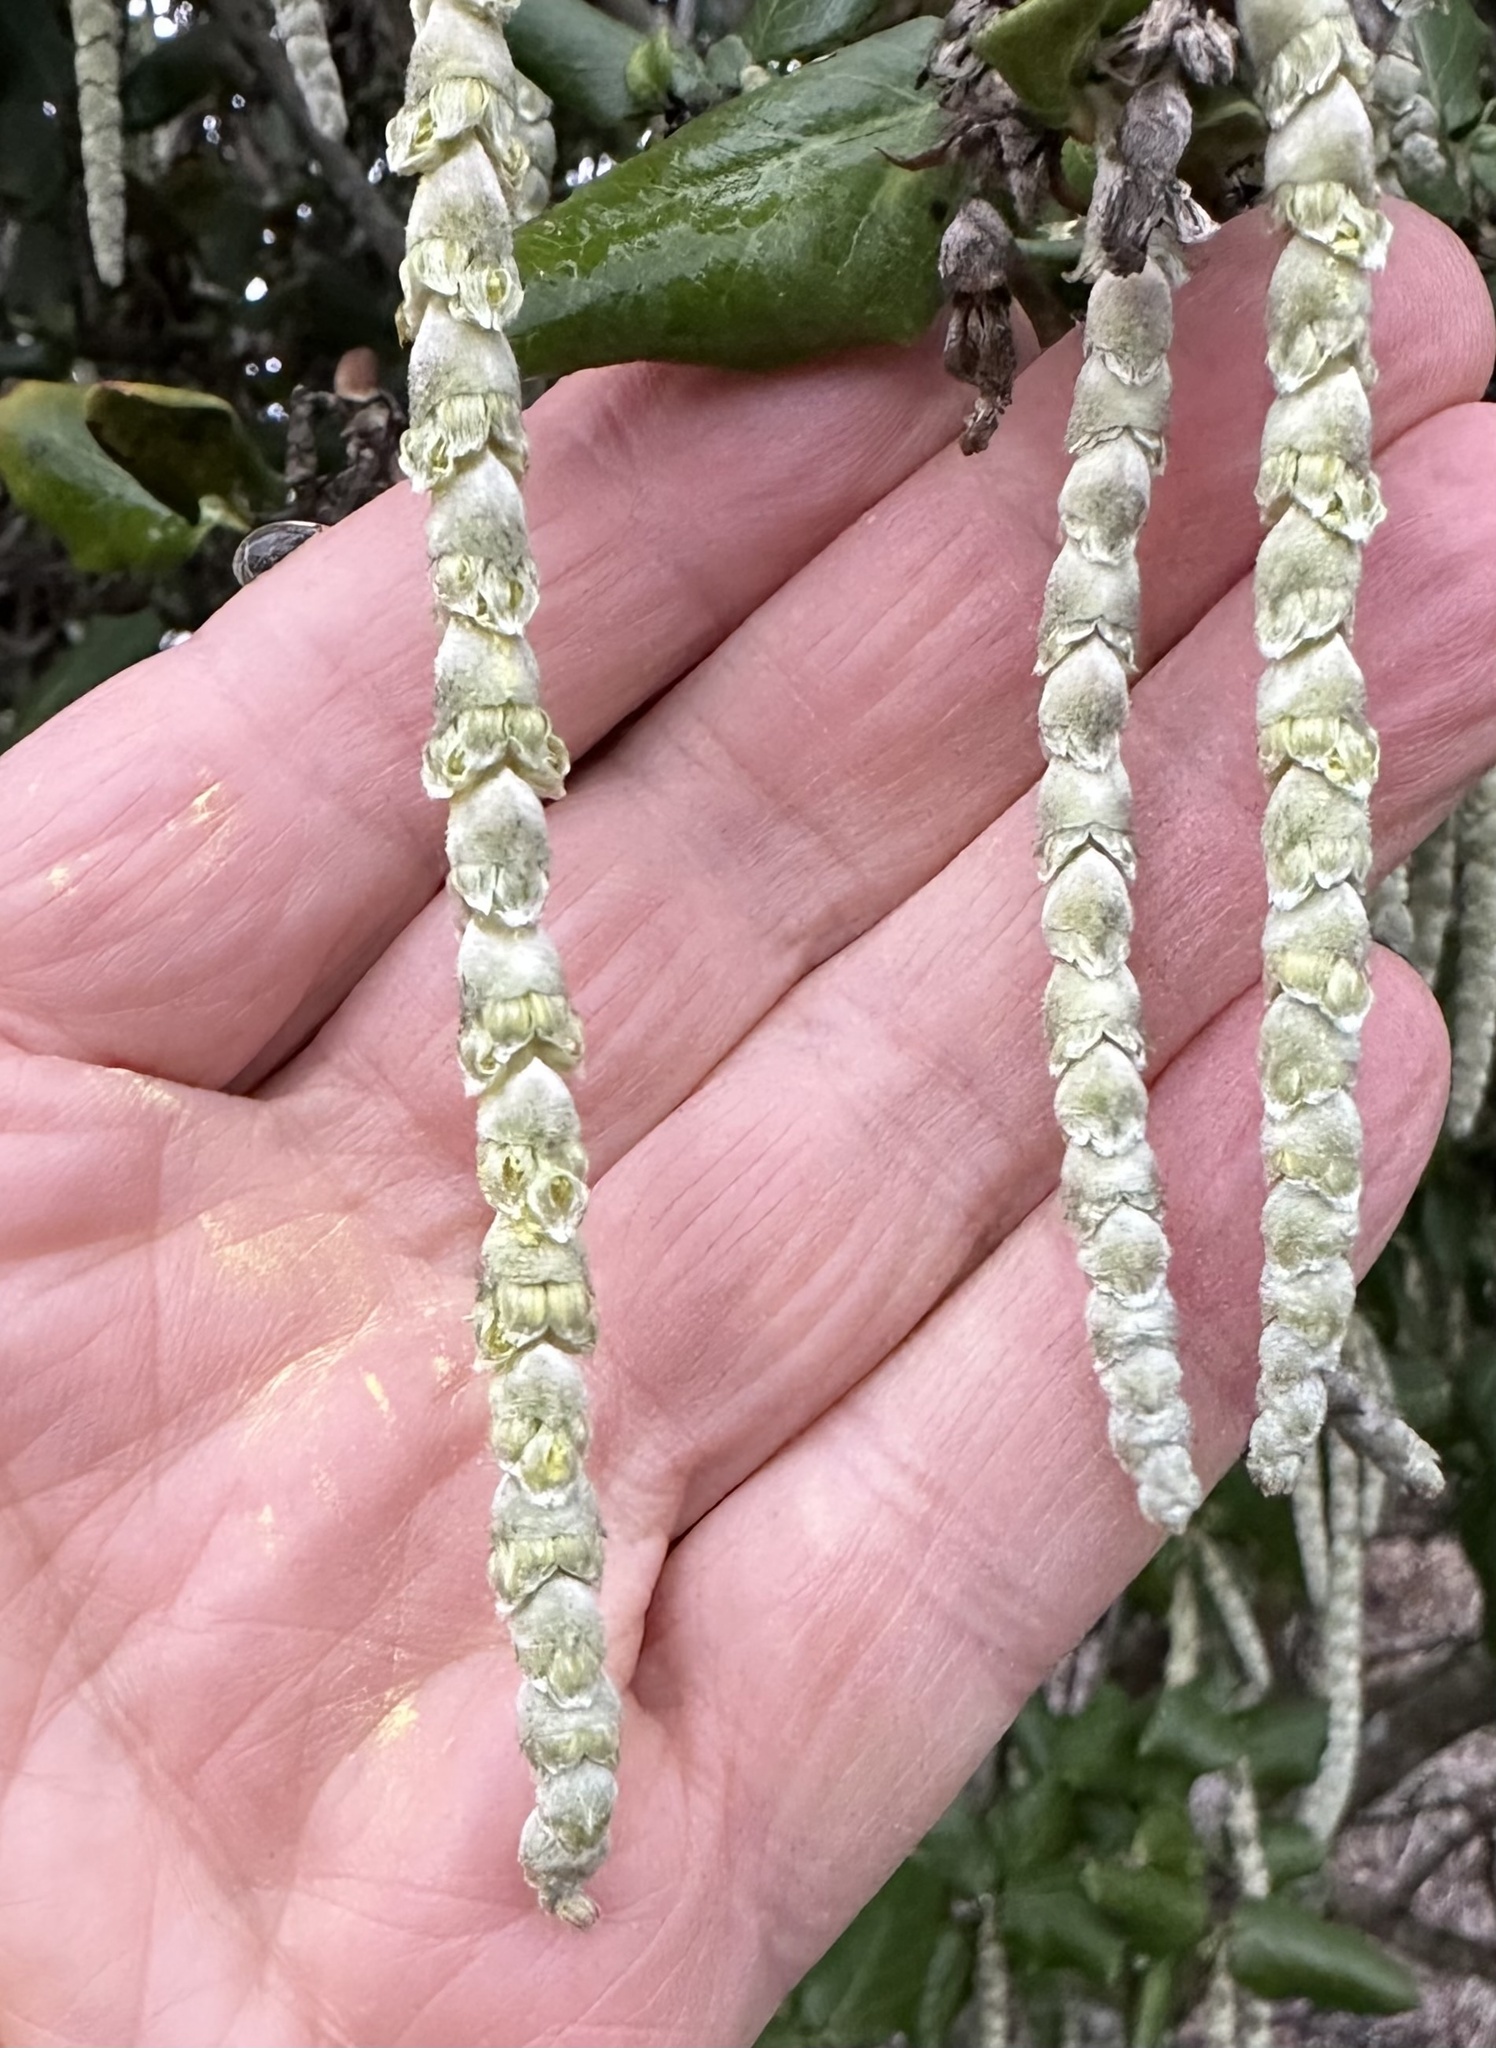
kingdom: Plantae
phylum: Tracheophyta
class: Magnoliopsida
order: Garryales
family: Garryaceae
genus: Garrya
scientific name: Garrya elliptica
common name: Silk-tassel
